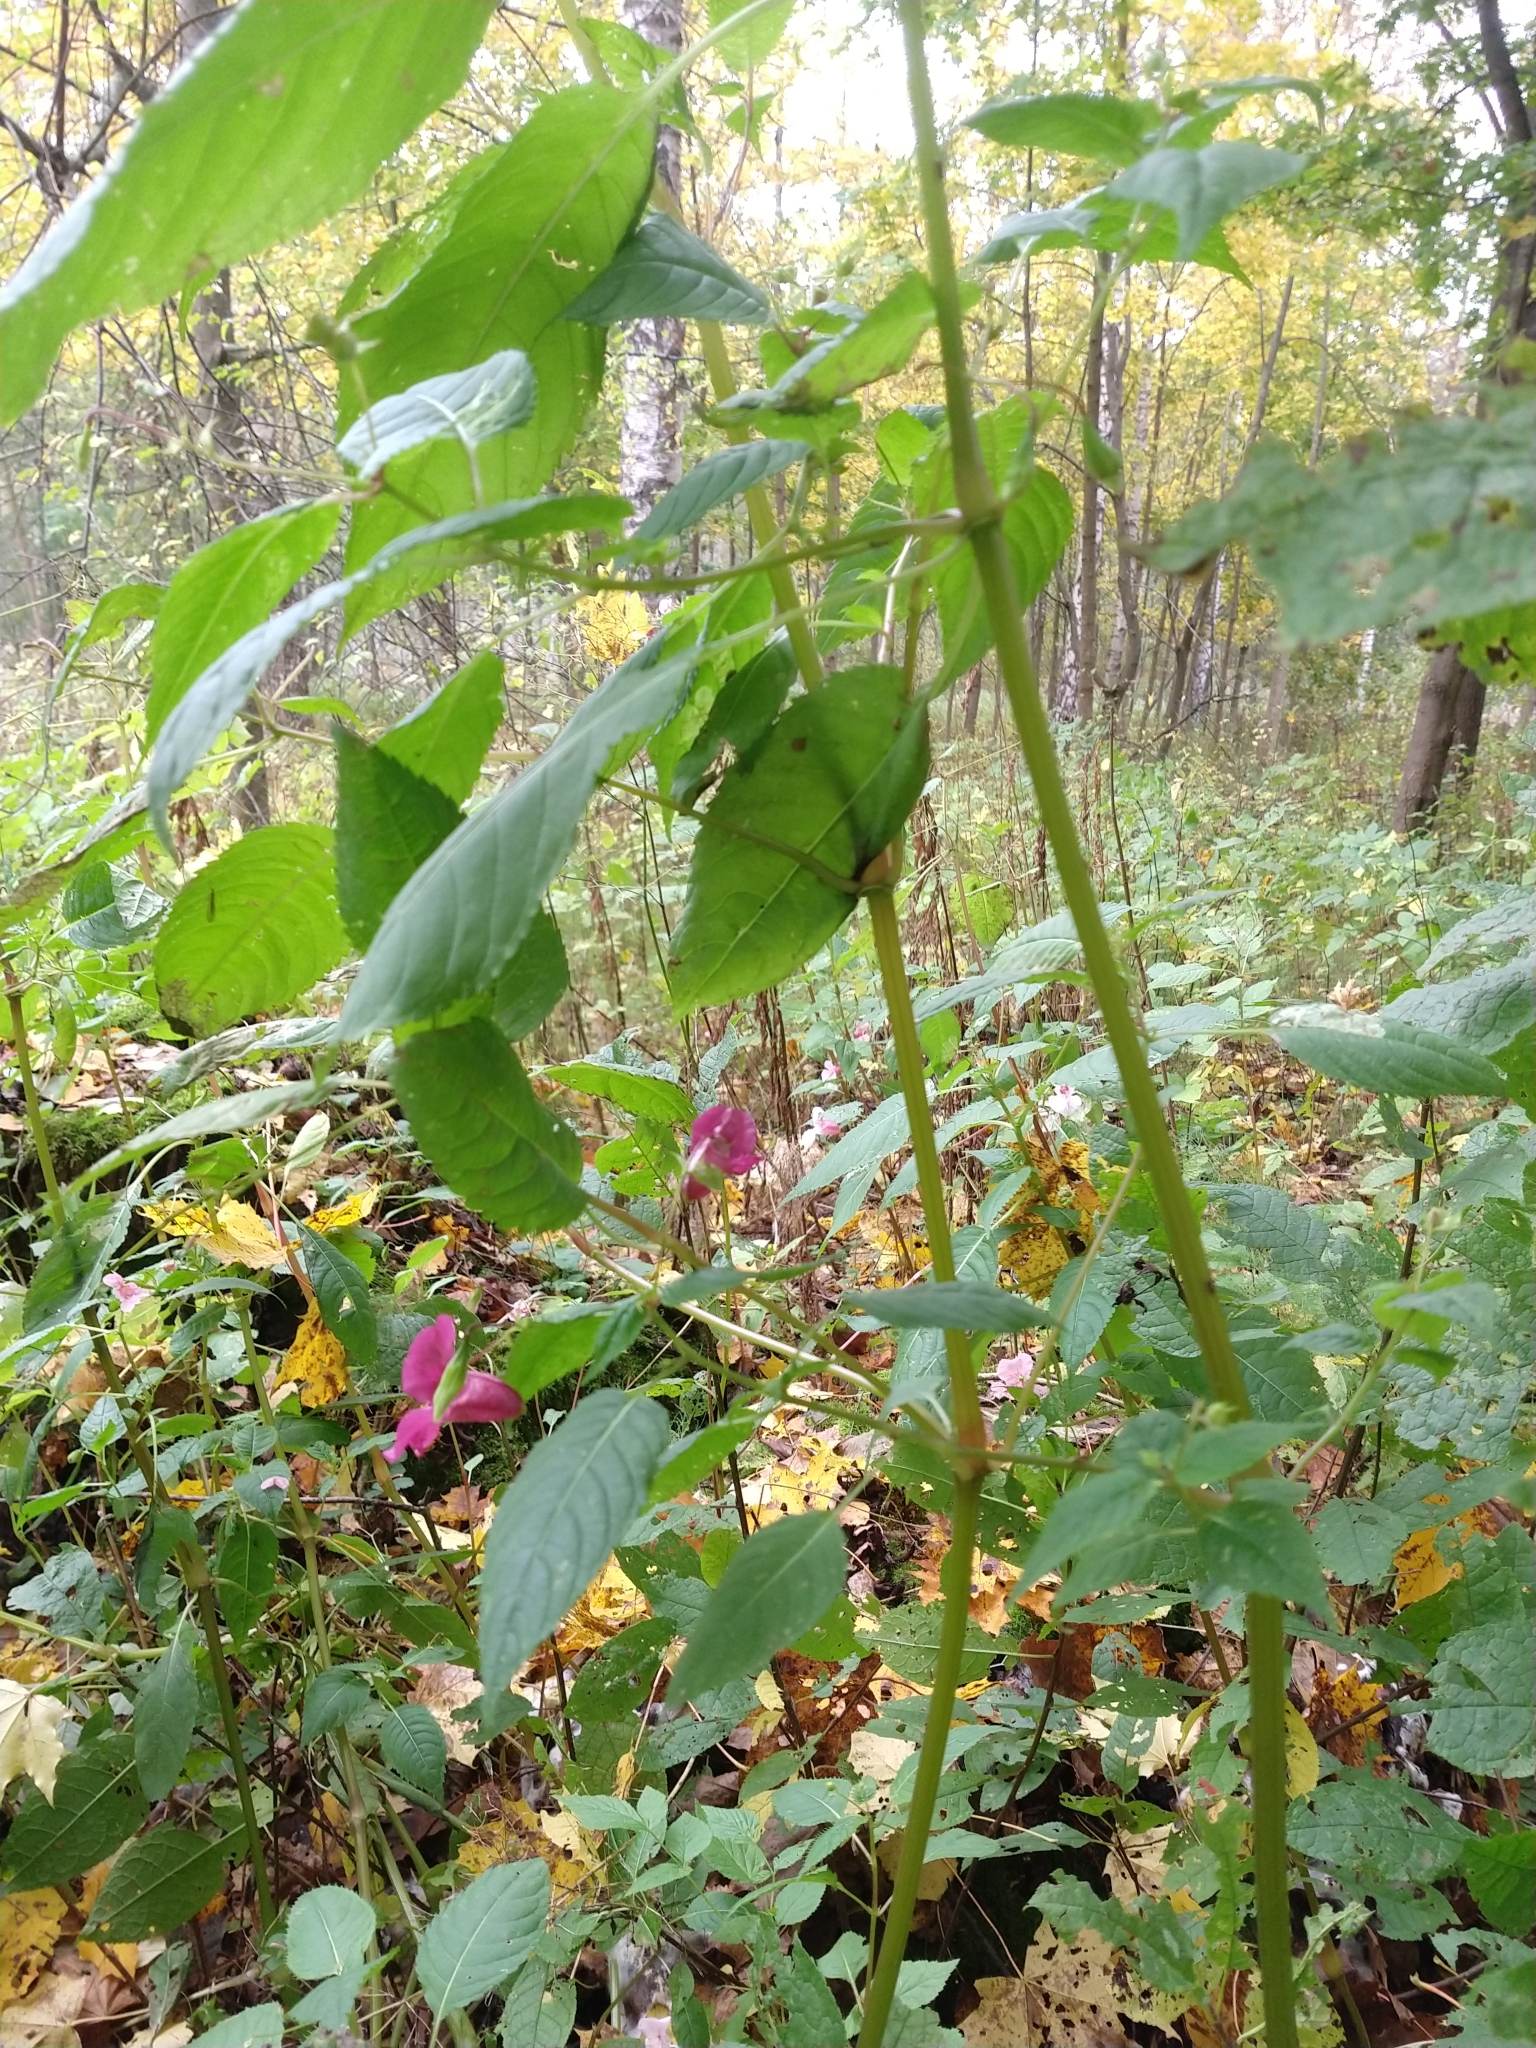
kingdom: Plantae
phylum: Tracheophyta
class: Magnoliopsida
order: Ericales
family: Balsaminaceae
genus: Impatiens
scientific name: Impatiens glandulifera
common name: Himalayan balsam
